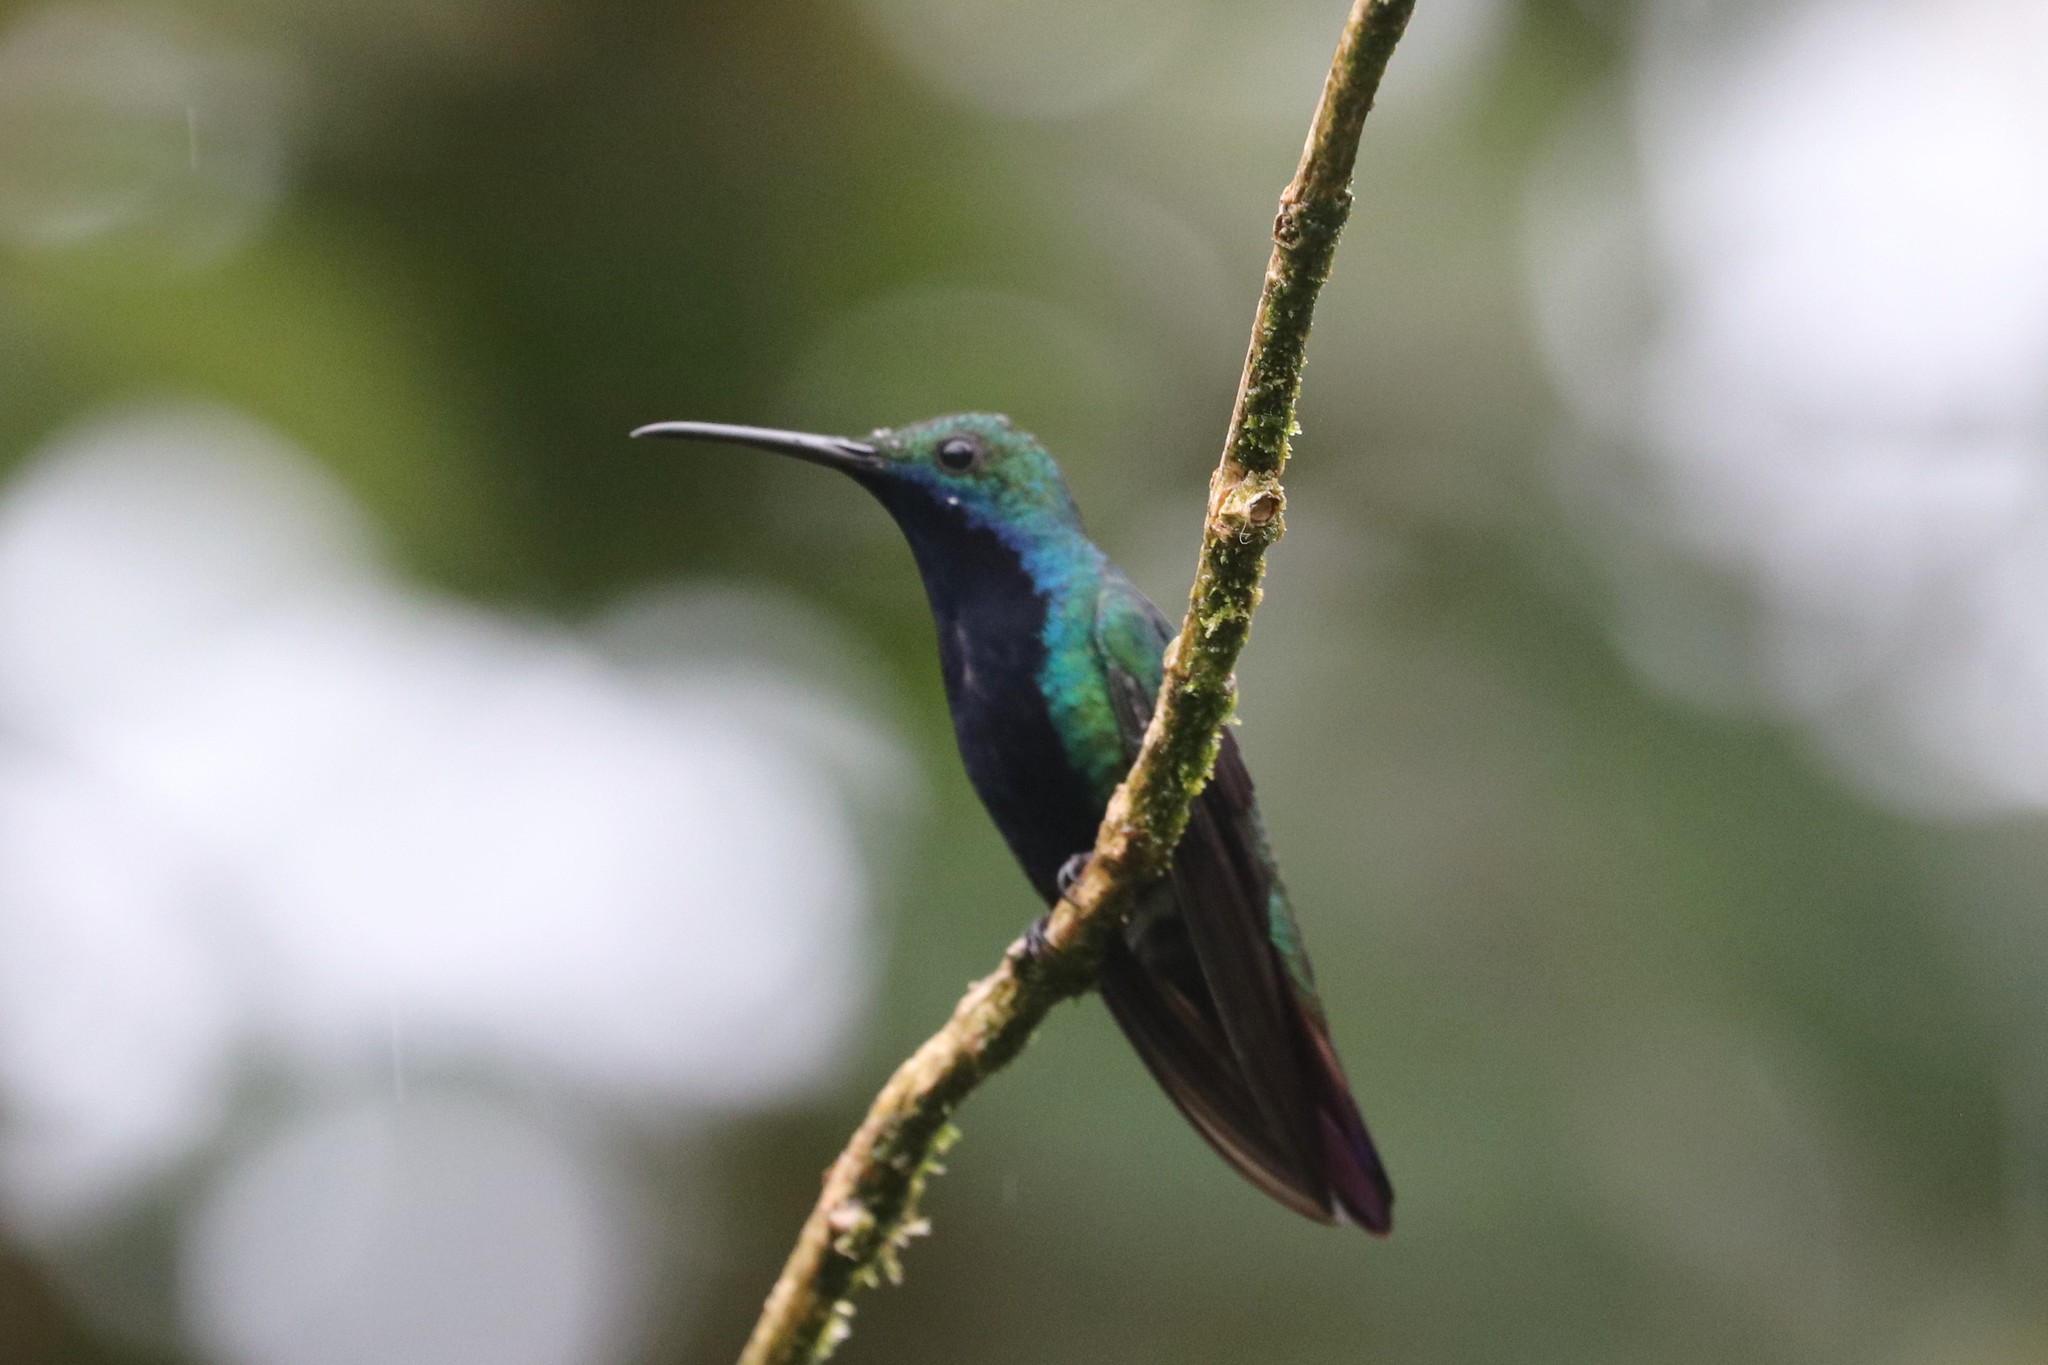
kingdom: Animalia
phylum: Chordata
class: Aves
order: Apodiformes
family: Trochilidae
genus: Anthracothorax
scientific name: Anthracothorax nigricollis
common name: Black-throated mango
